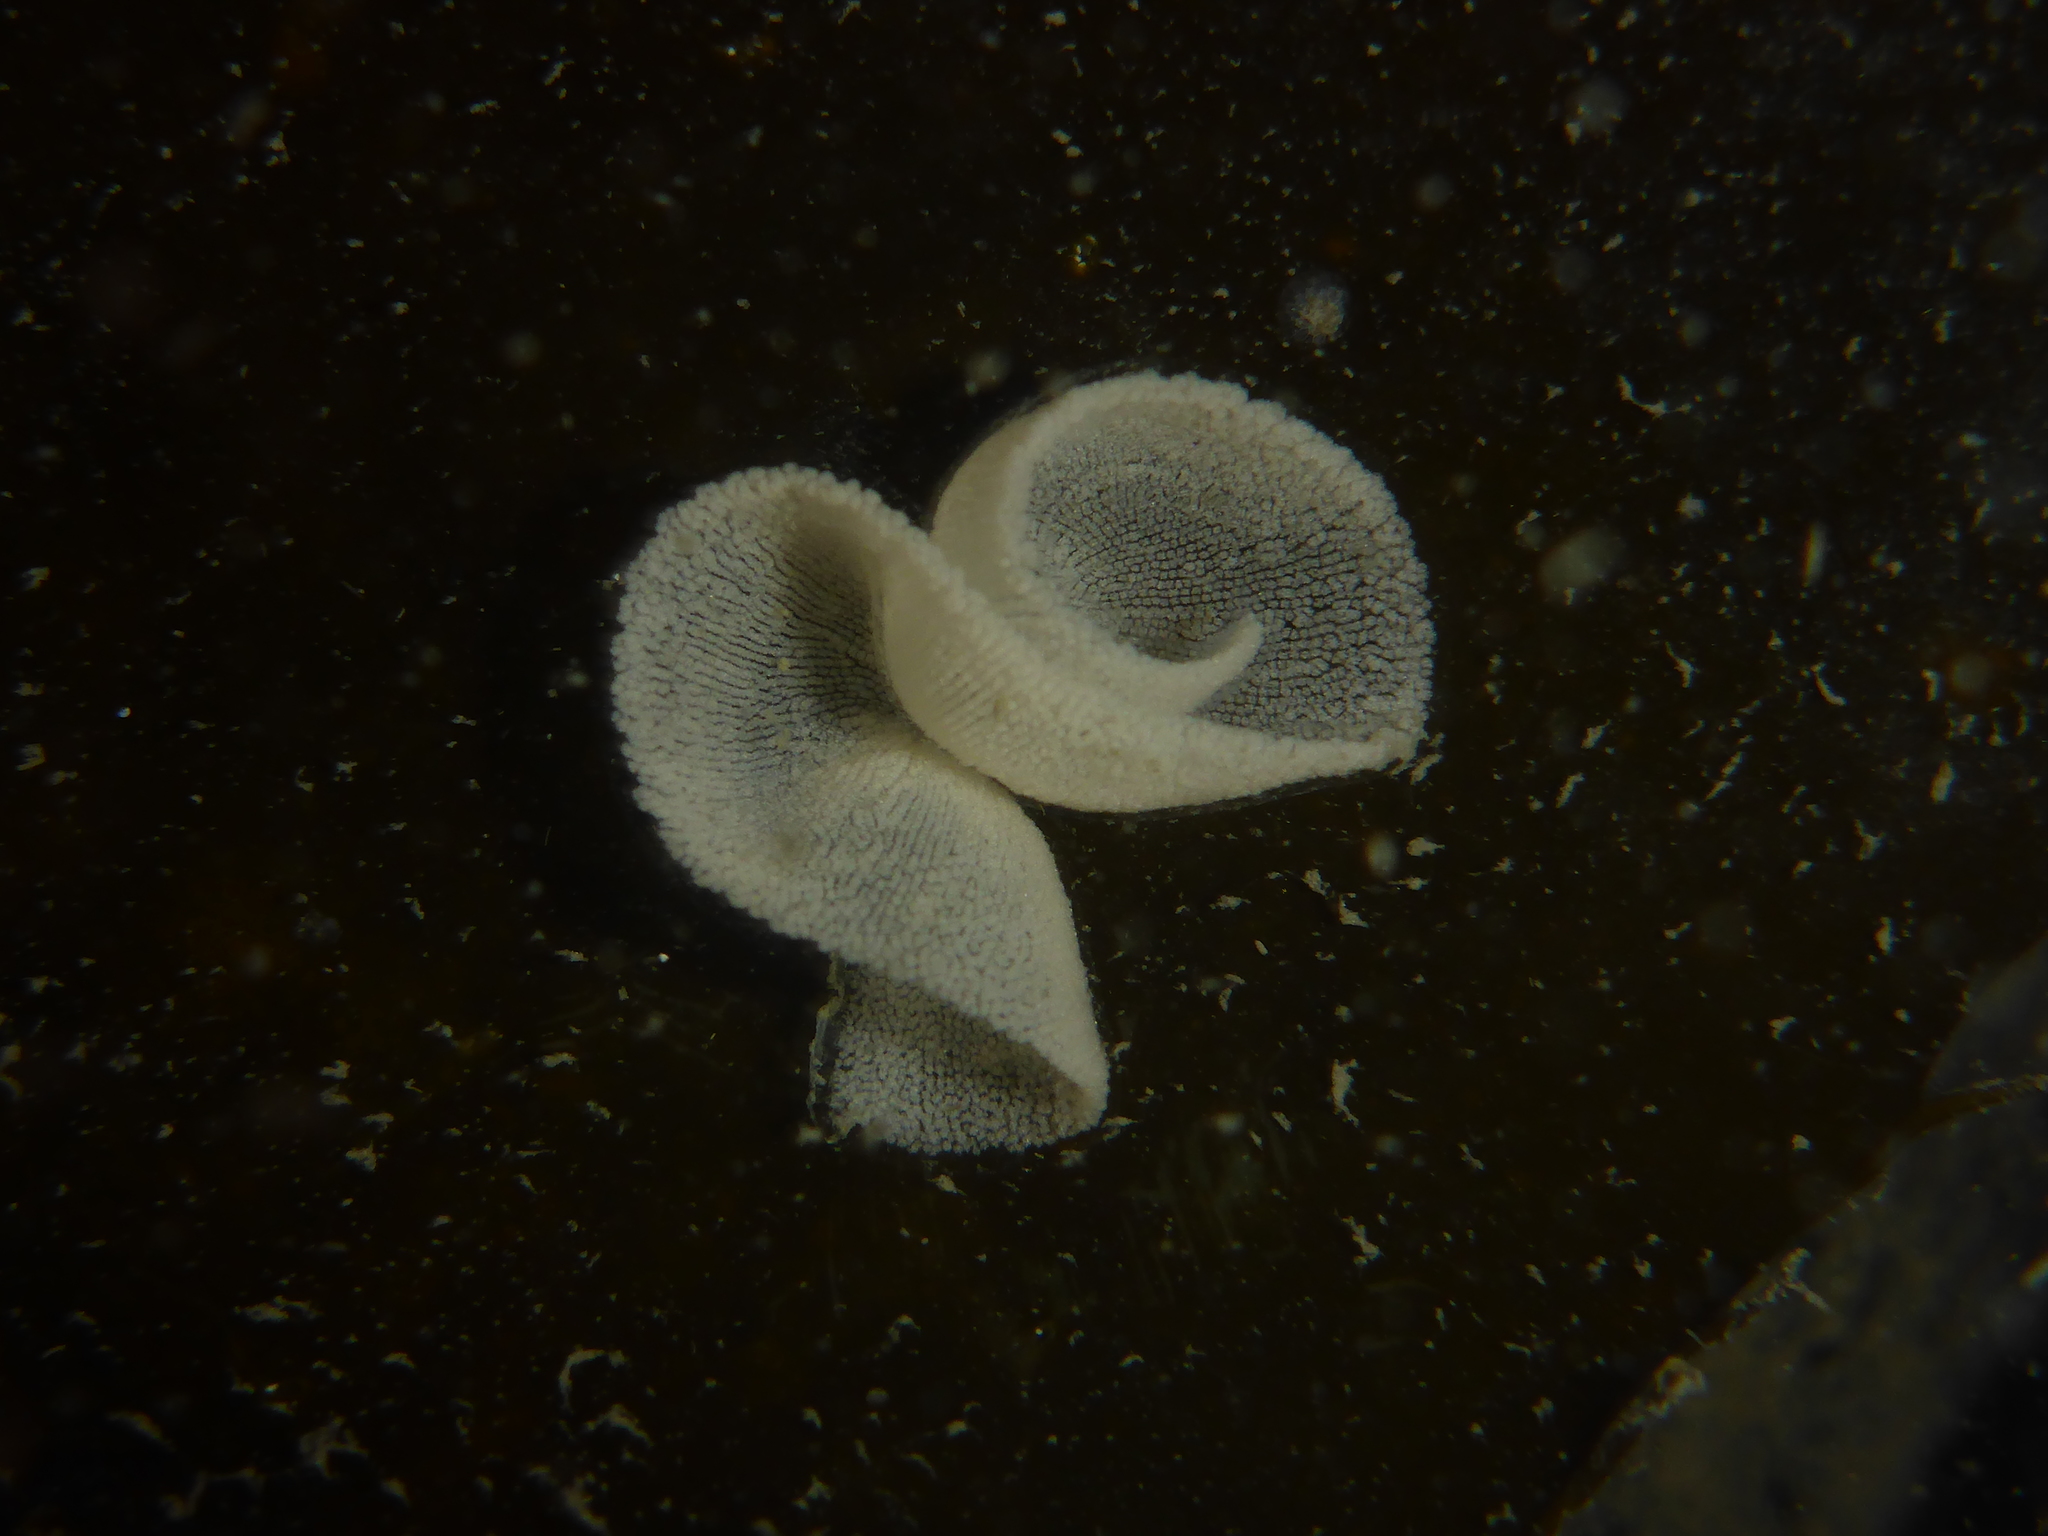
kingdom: Animalia
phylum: Mollusca
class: Gastropoda
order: Nudibranchia
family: Tethydidae
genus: Melibe
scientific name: Melibe leonina
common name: Lion nudibranch
